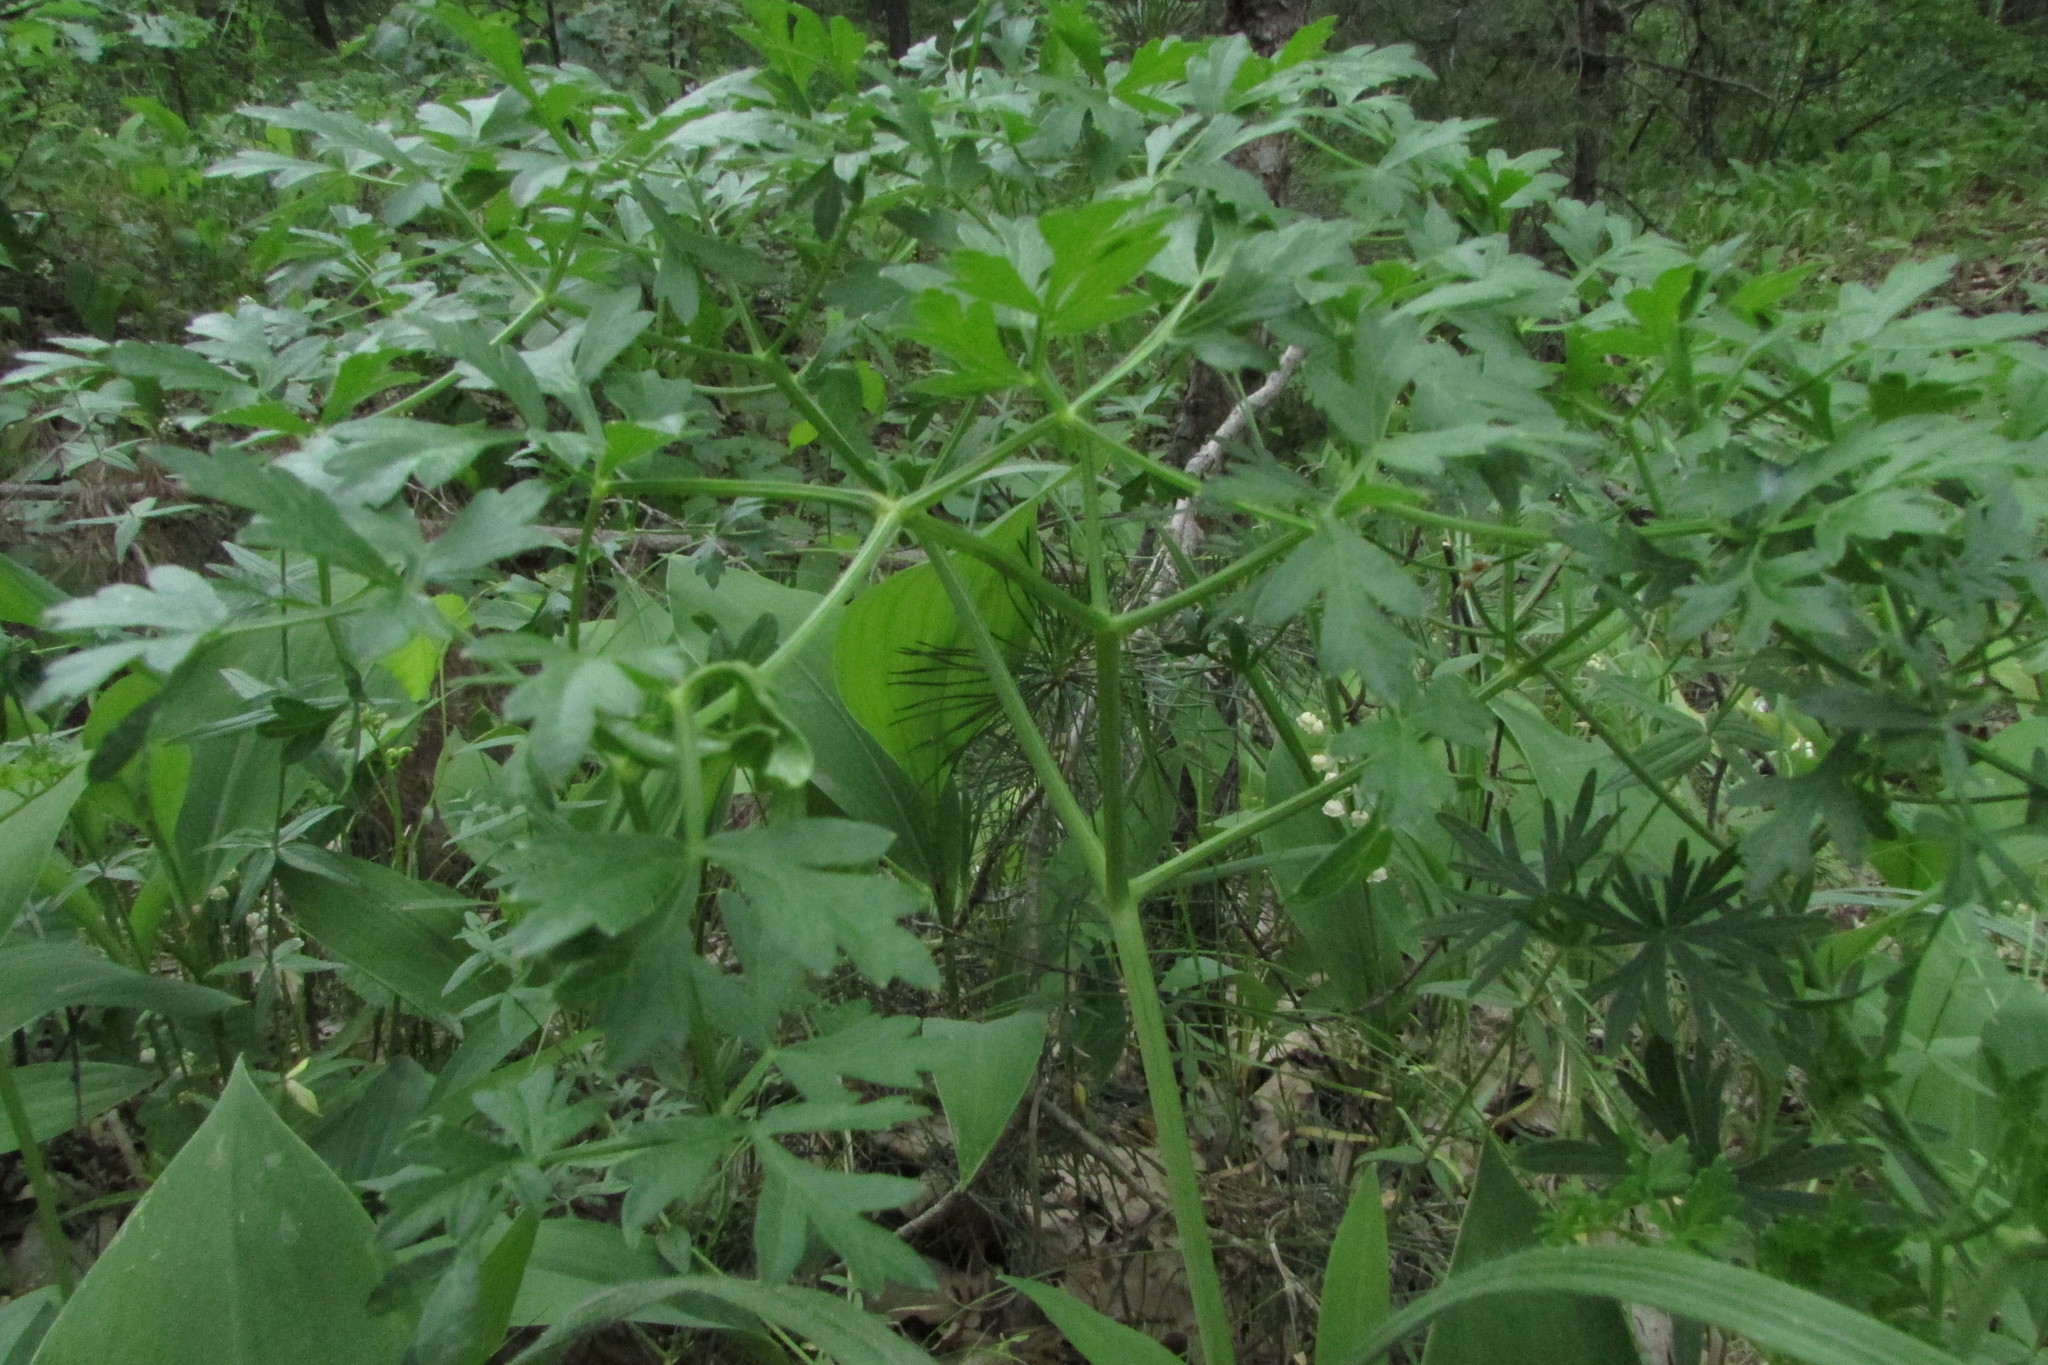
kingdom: Plantae
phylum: Tracheophyta
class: Magnoliopsida
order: Apiales
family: Apiaceae
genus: Oreoselinum
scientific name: Oreoselinum nigrum
